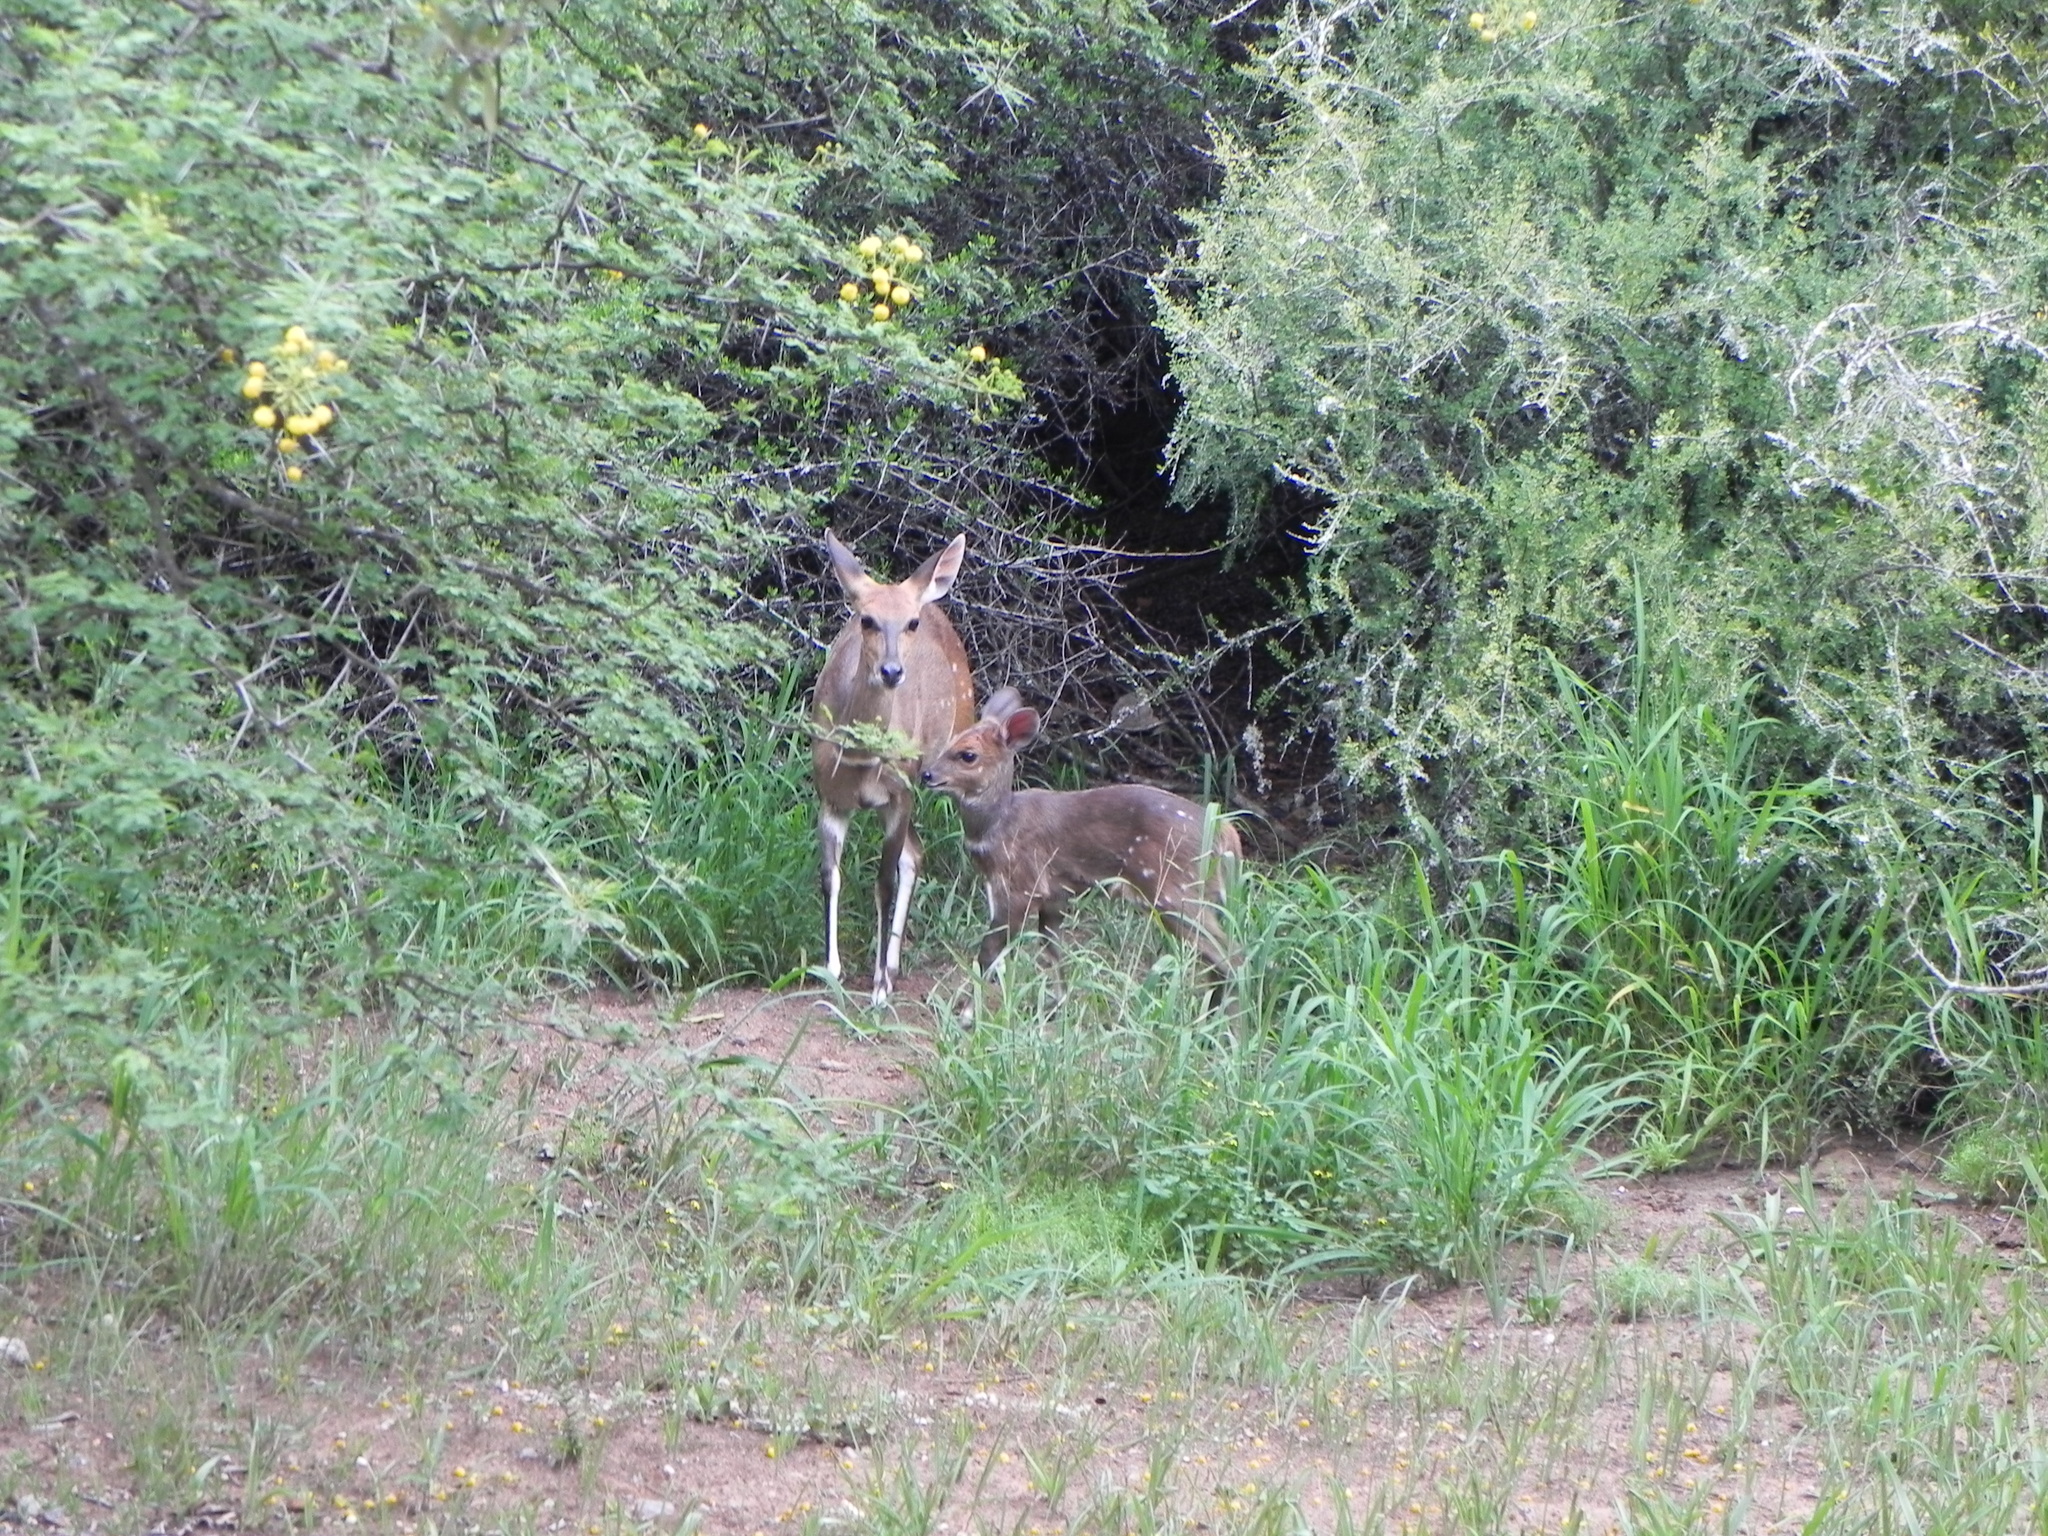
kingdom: Animalia
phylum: Chordata
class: Mammalia
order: Artiodactyla
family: Bovidae
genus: Tragelaphus
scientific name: Tragelaphus scriptus
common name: Bushbuck
